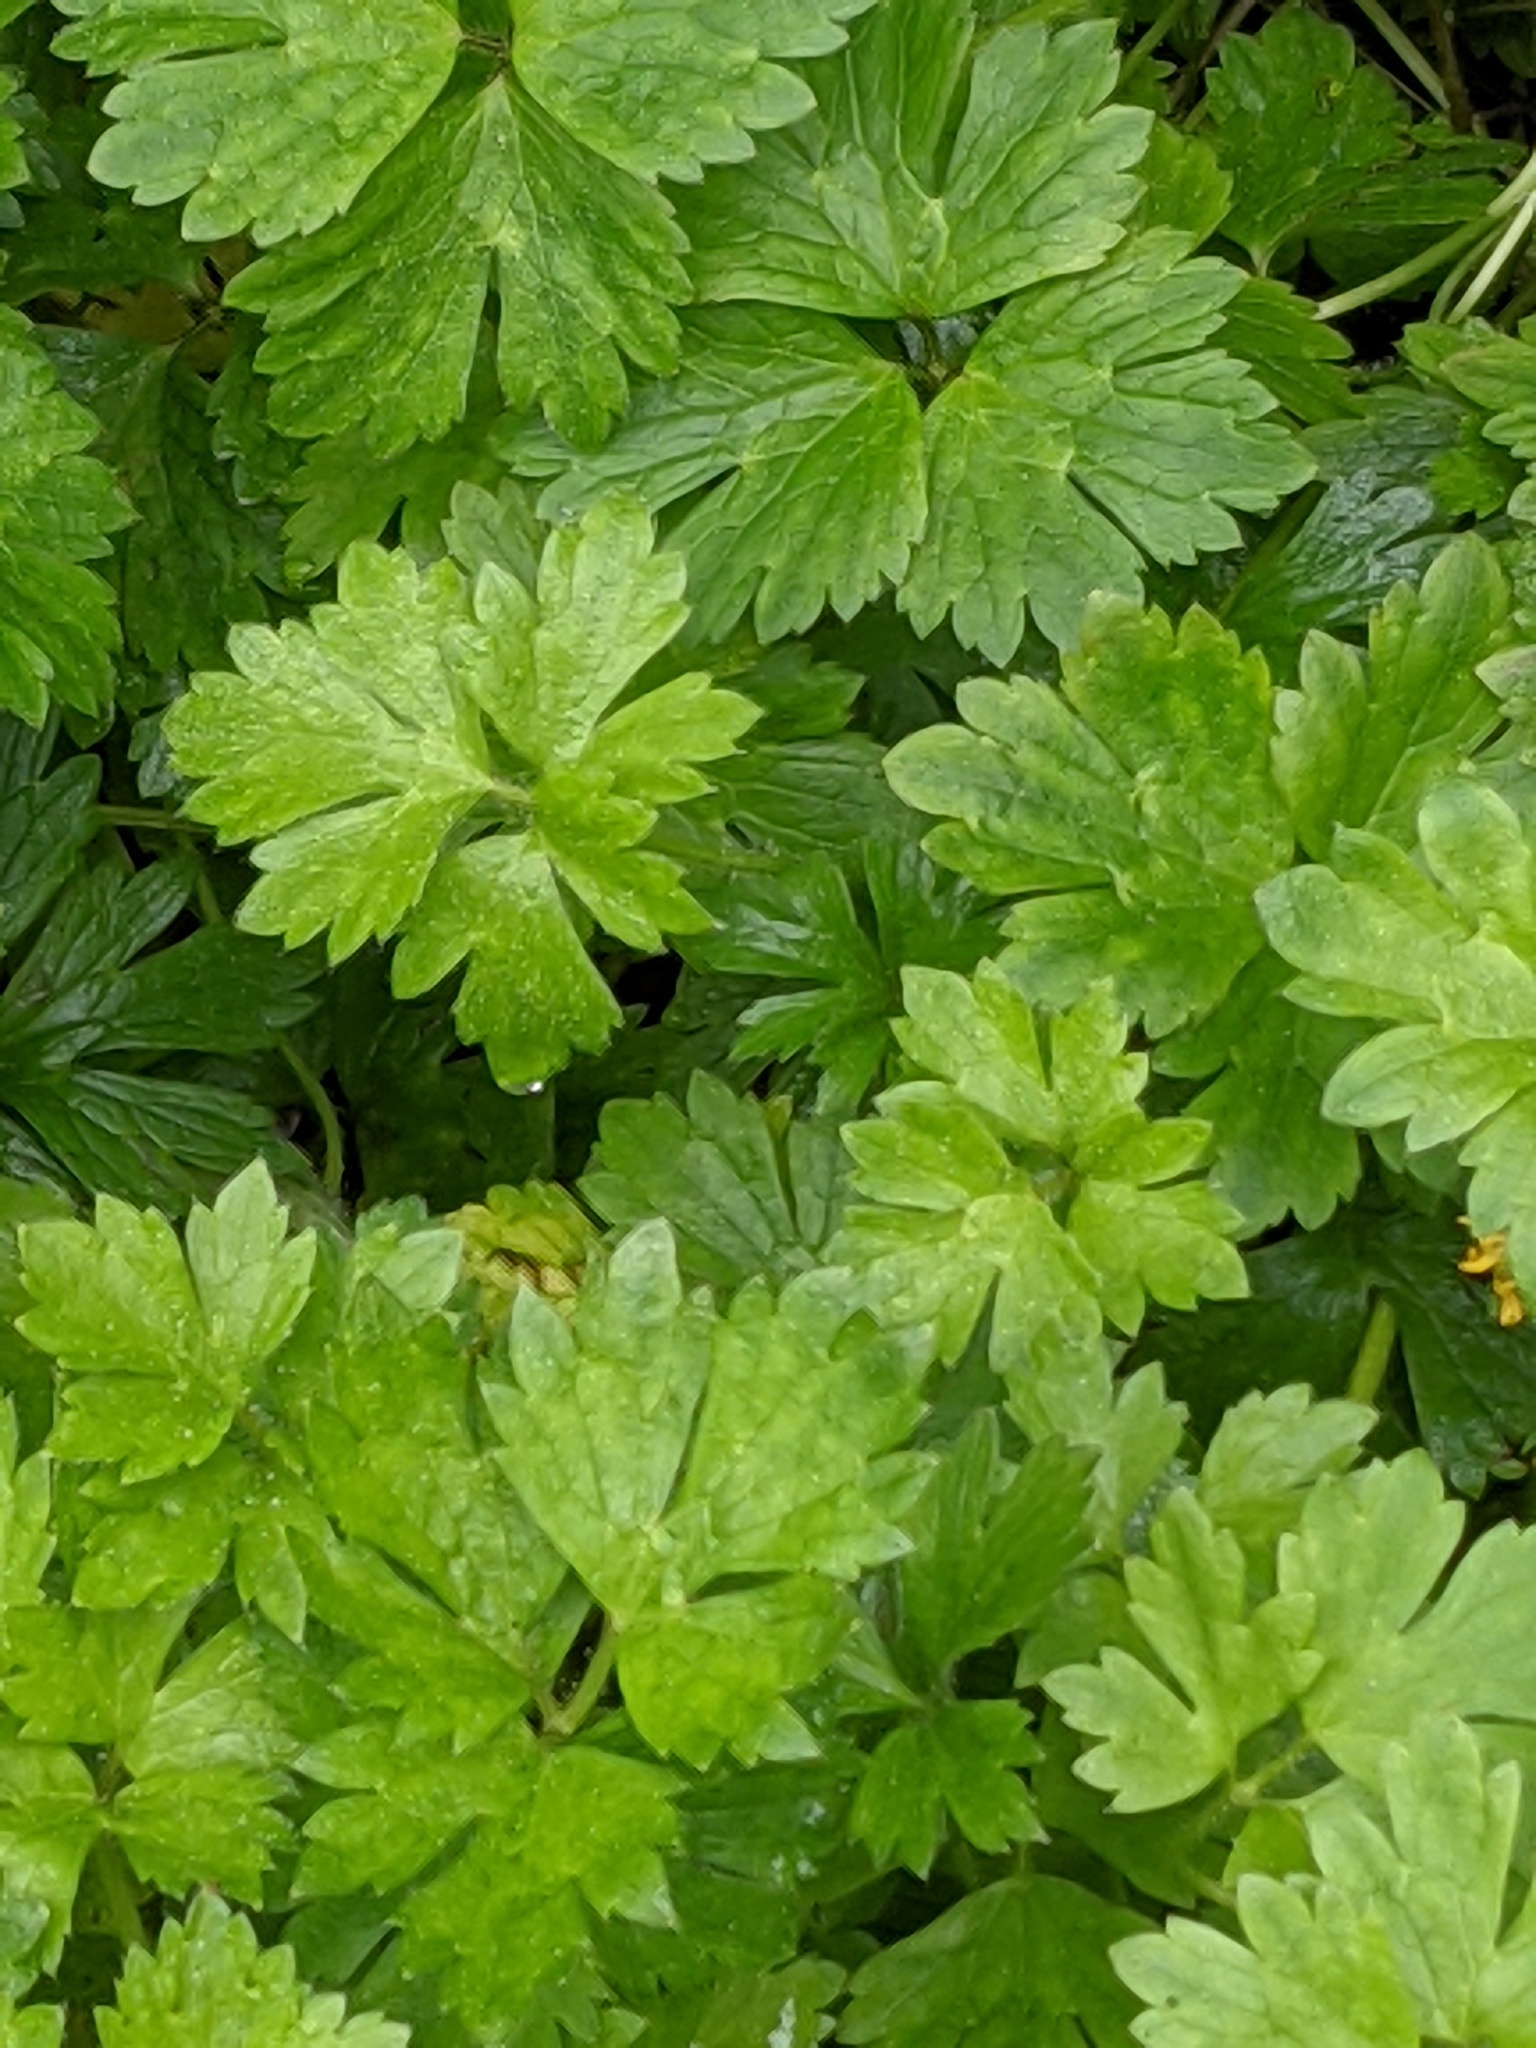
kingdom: Plantae
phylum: Tracheophyta
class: Magnoliopsida
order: Ranunculales
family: Ranunculaceae
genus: Ranunculus
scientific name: Ranunculus repens
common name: Creeping buttercup
